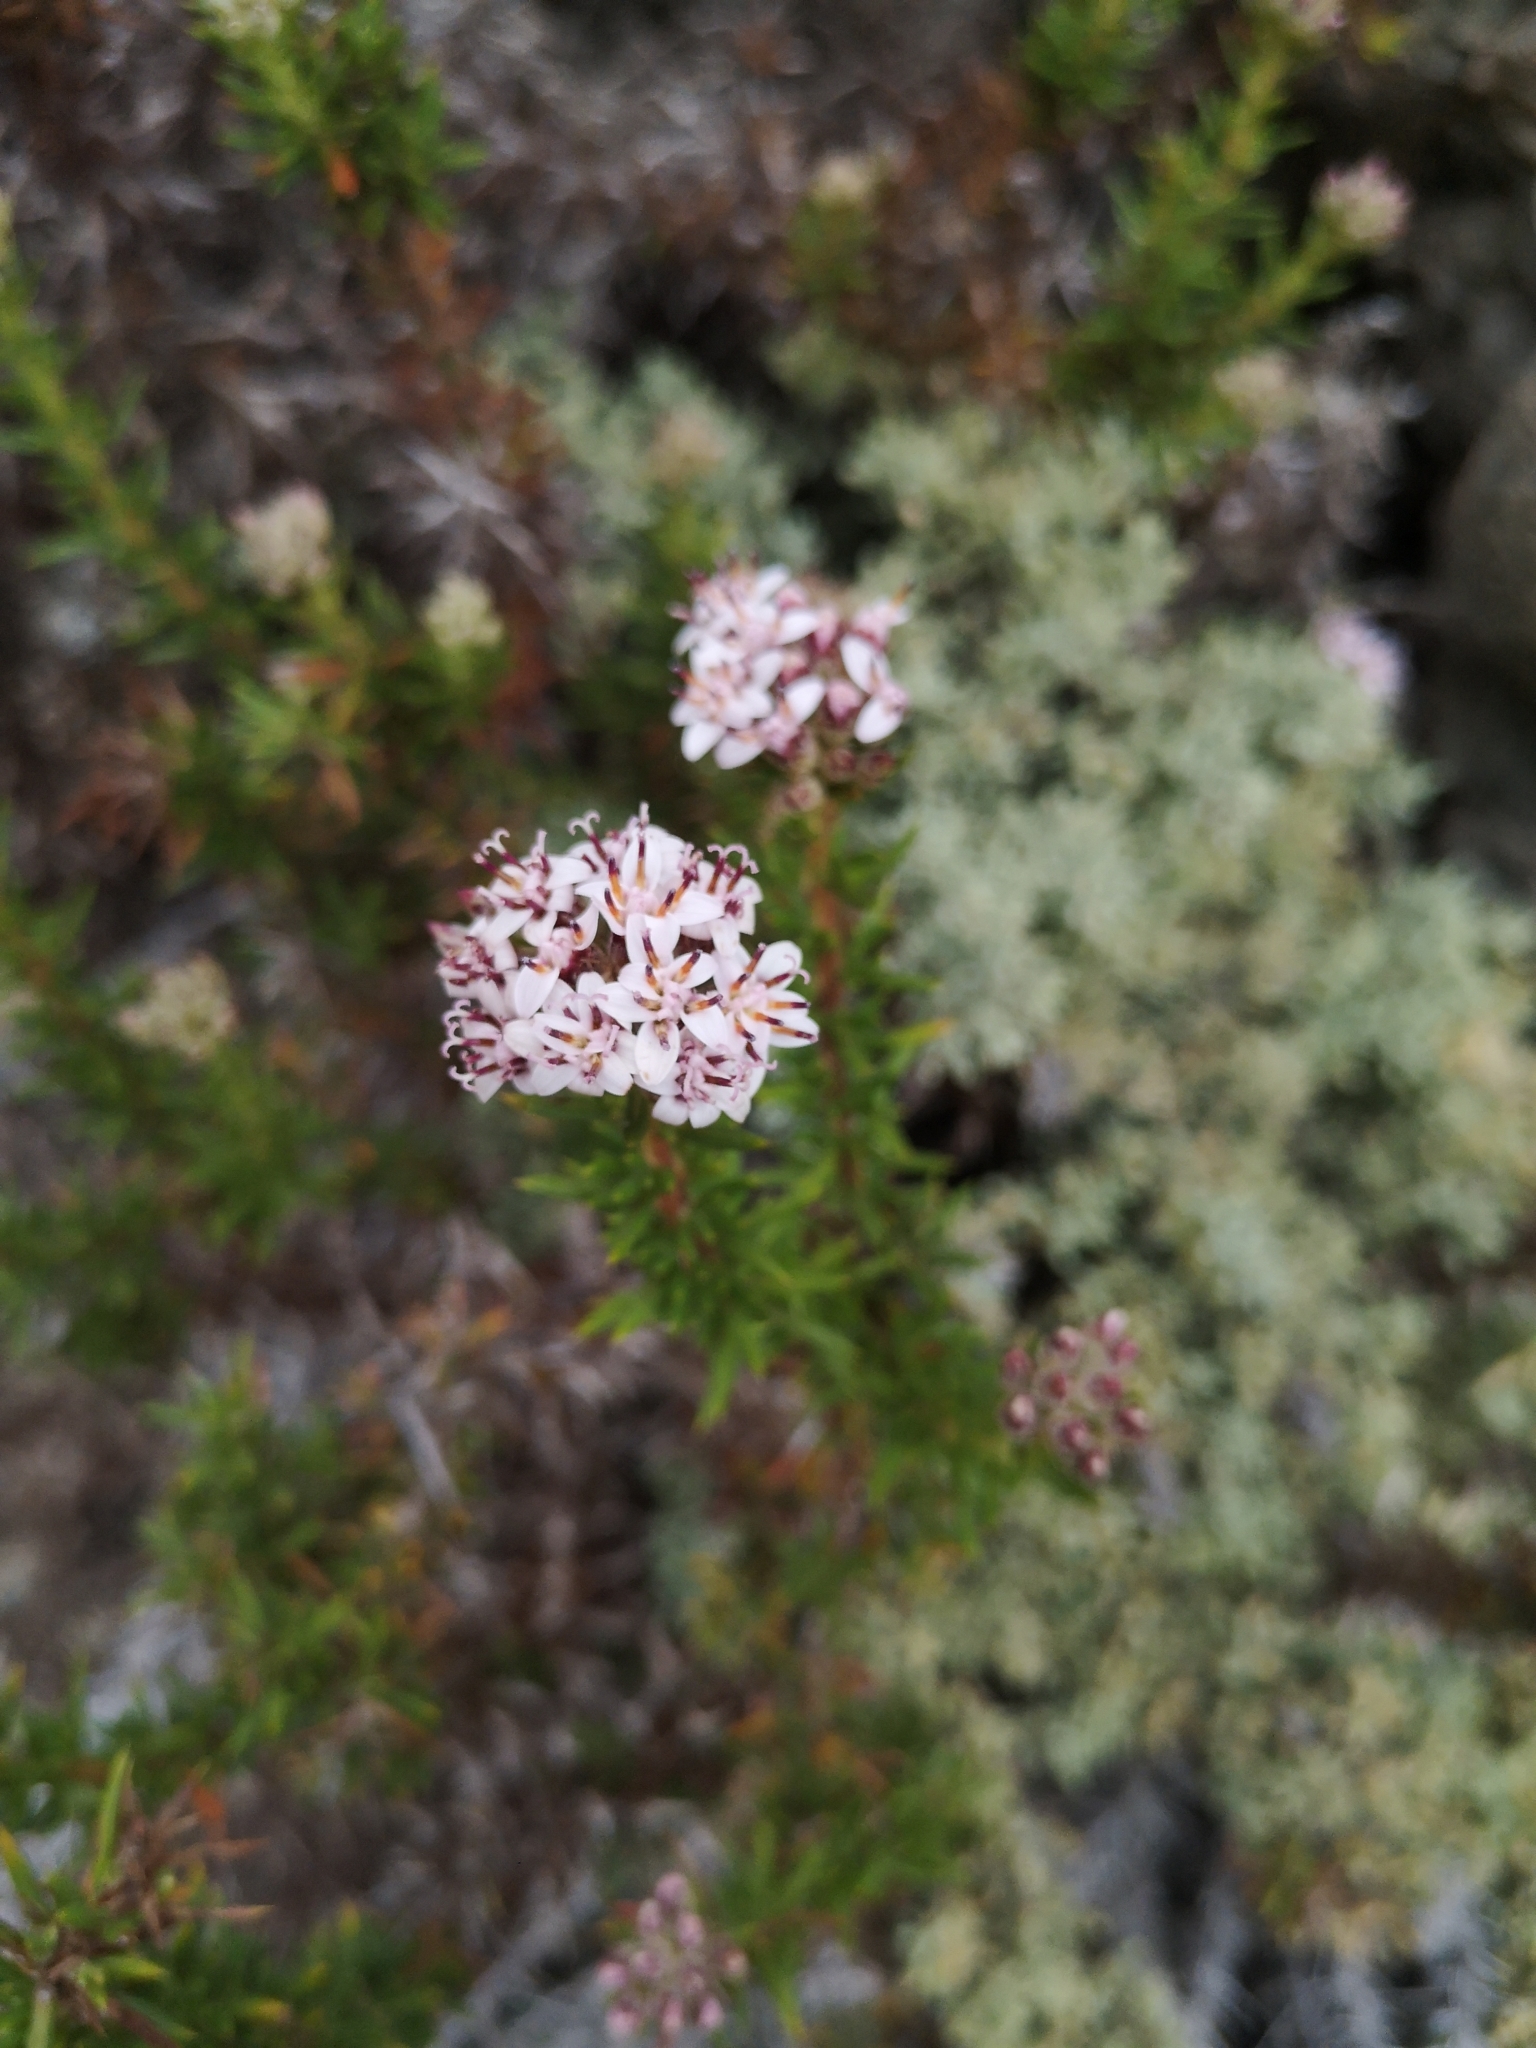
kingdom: Plantae
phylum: Tracheophyta
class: Magnoliopsida
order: Asterales
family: Asteraceae
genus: Oxyphyllum
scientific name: Oxyphyllum ulicinum
